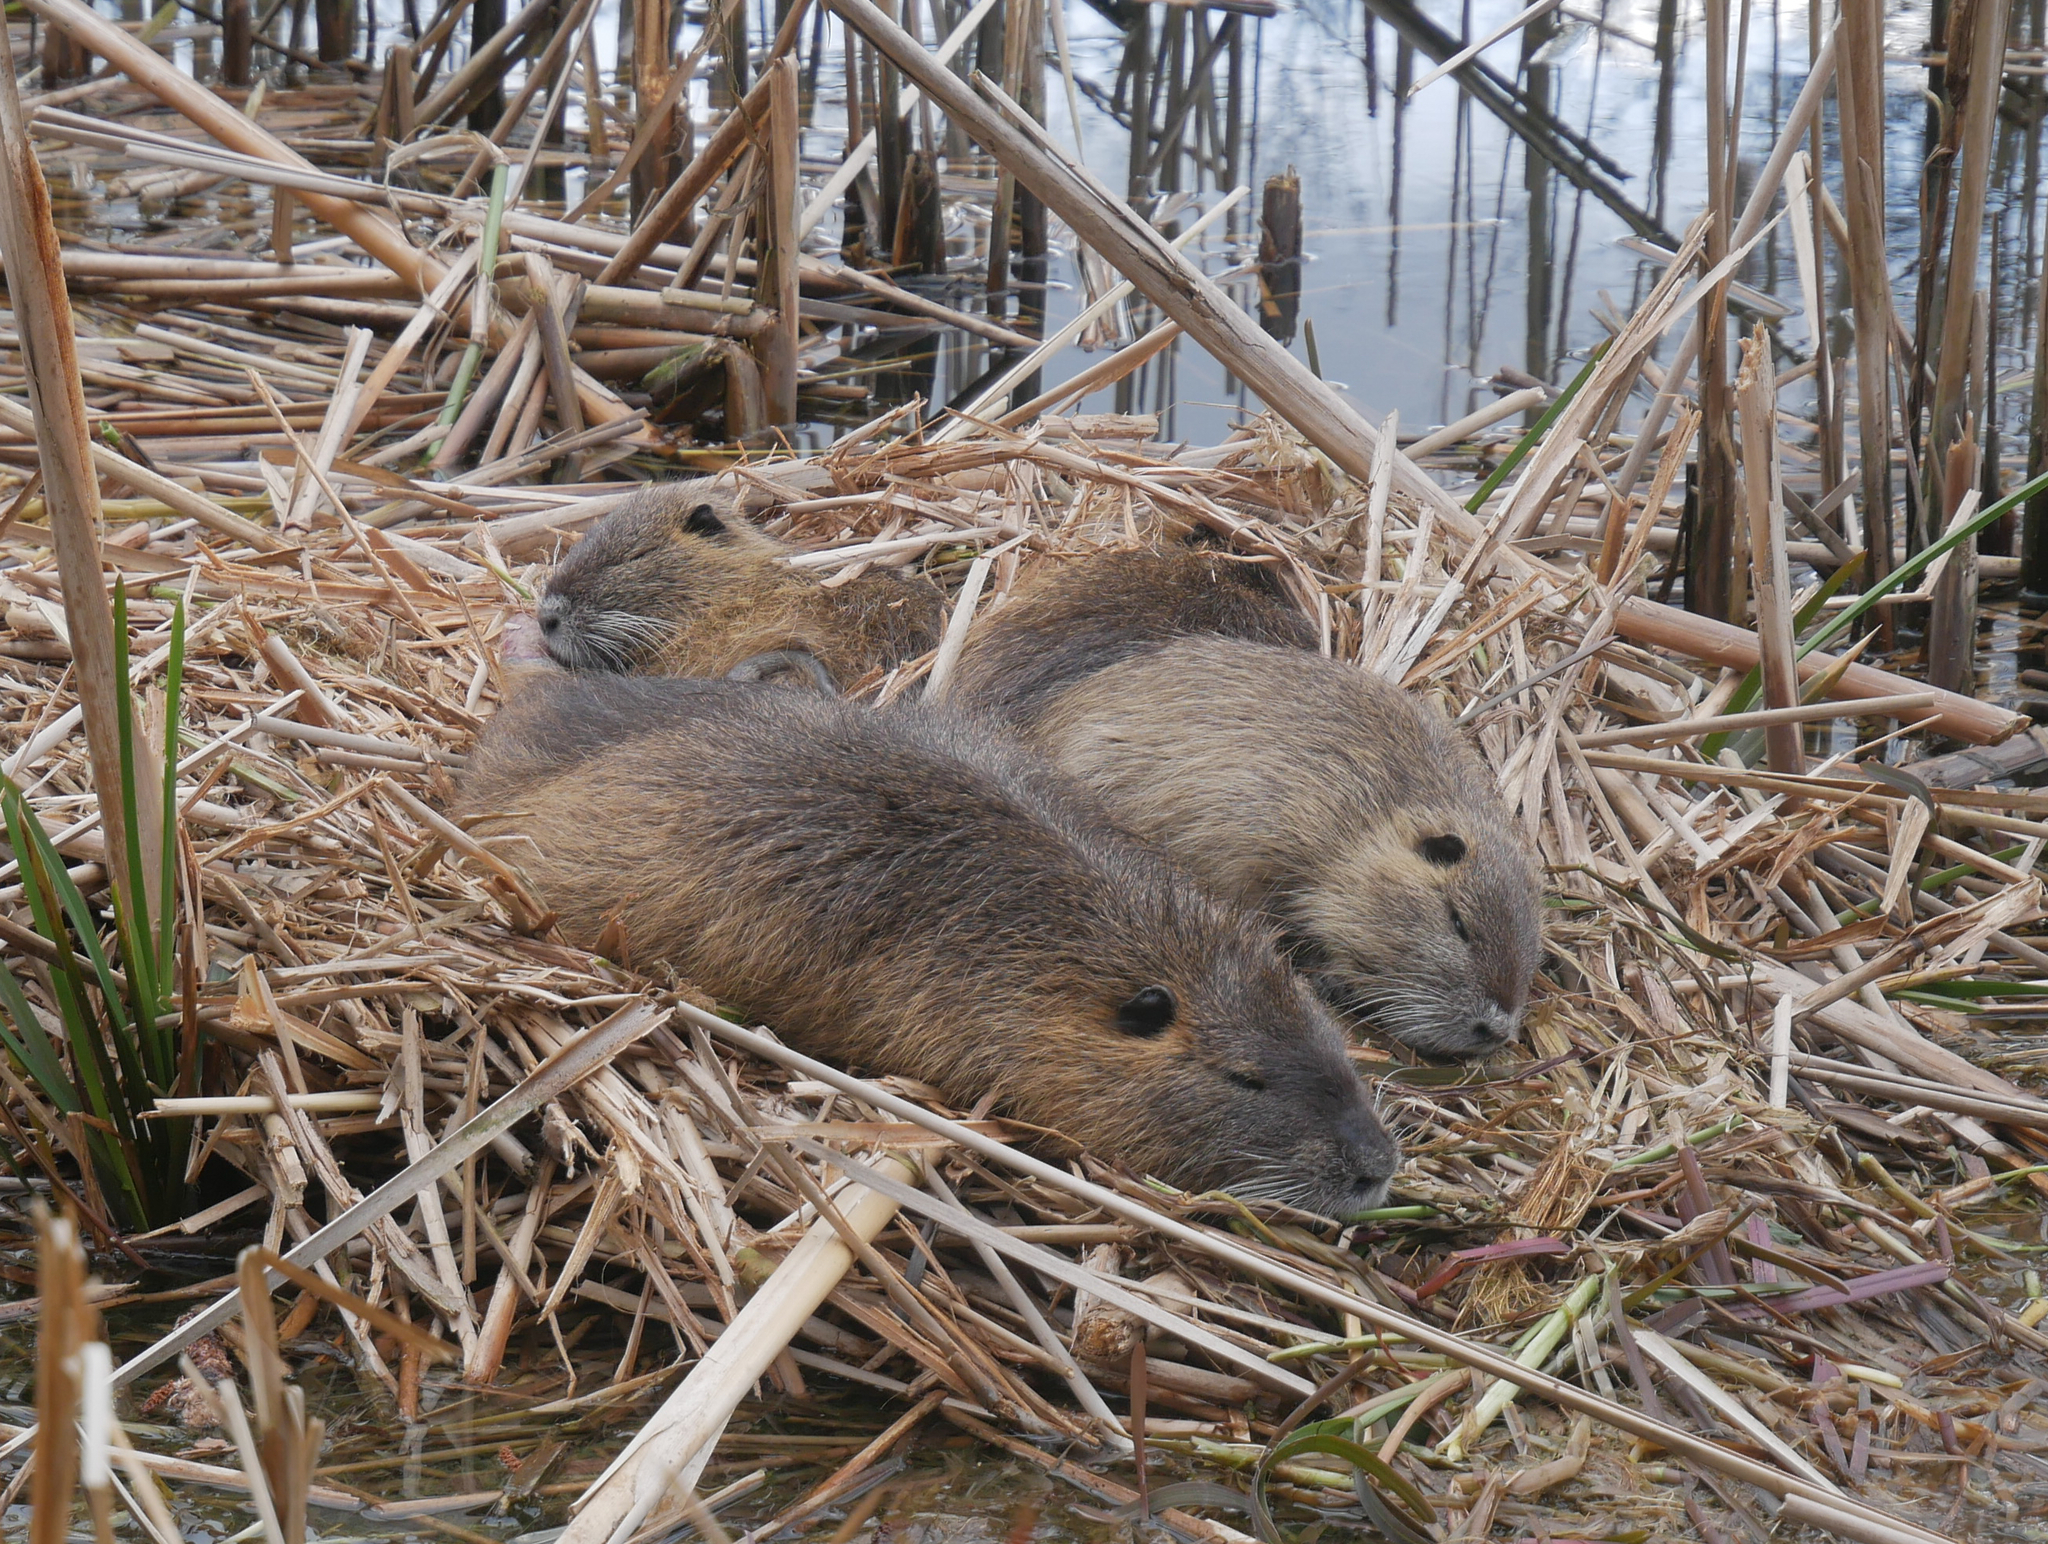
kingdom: Animalia
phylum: Chordata
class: Mammalia
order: Rodentia
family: Myocastoridae
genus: Myocastor
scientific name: Myocastor coypus
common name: Coypu
